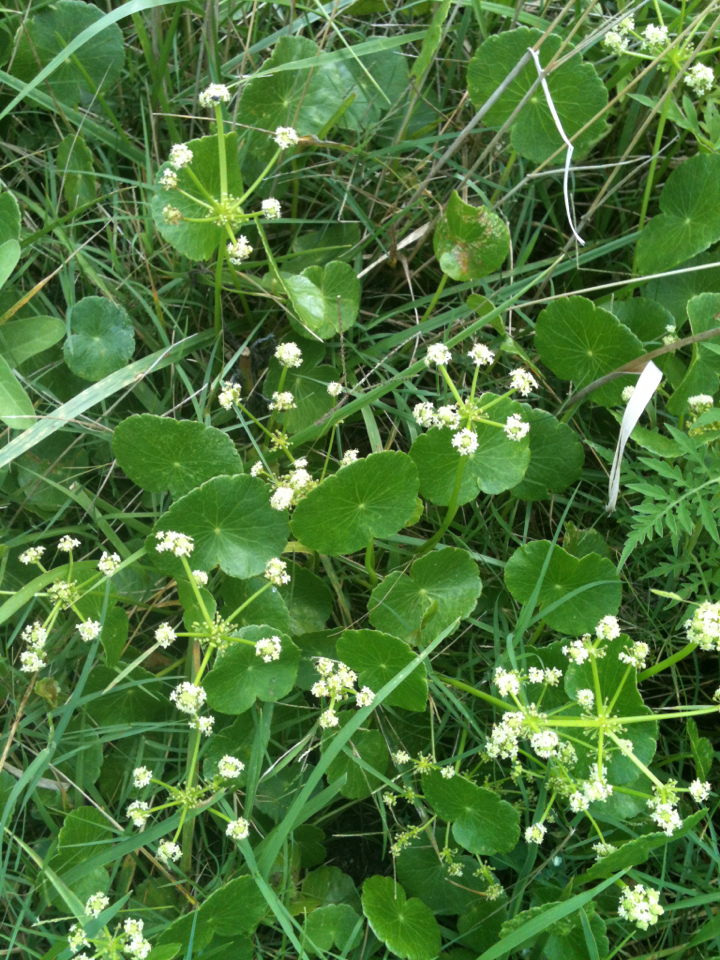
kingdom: Plantae
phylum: Tracheophyta
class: Magnoliopsida
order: Apiales
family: Araliaceae
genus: Hydrocotyle
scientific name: Hydrocotyle bonariensis
